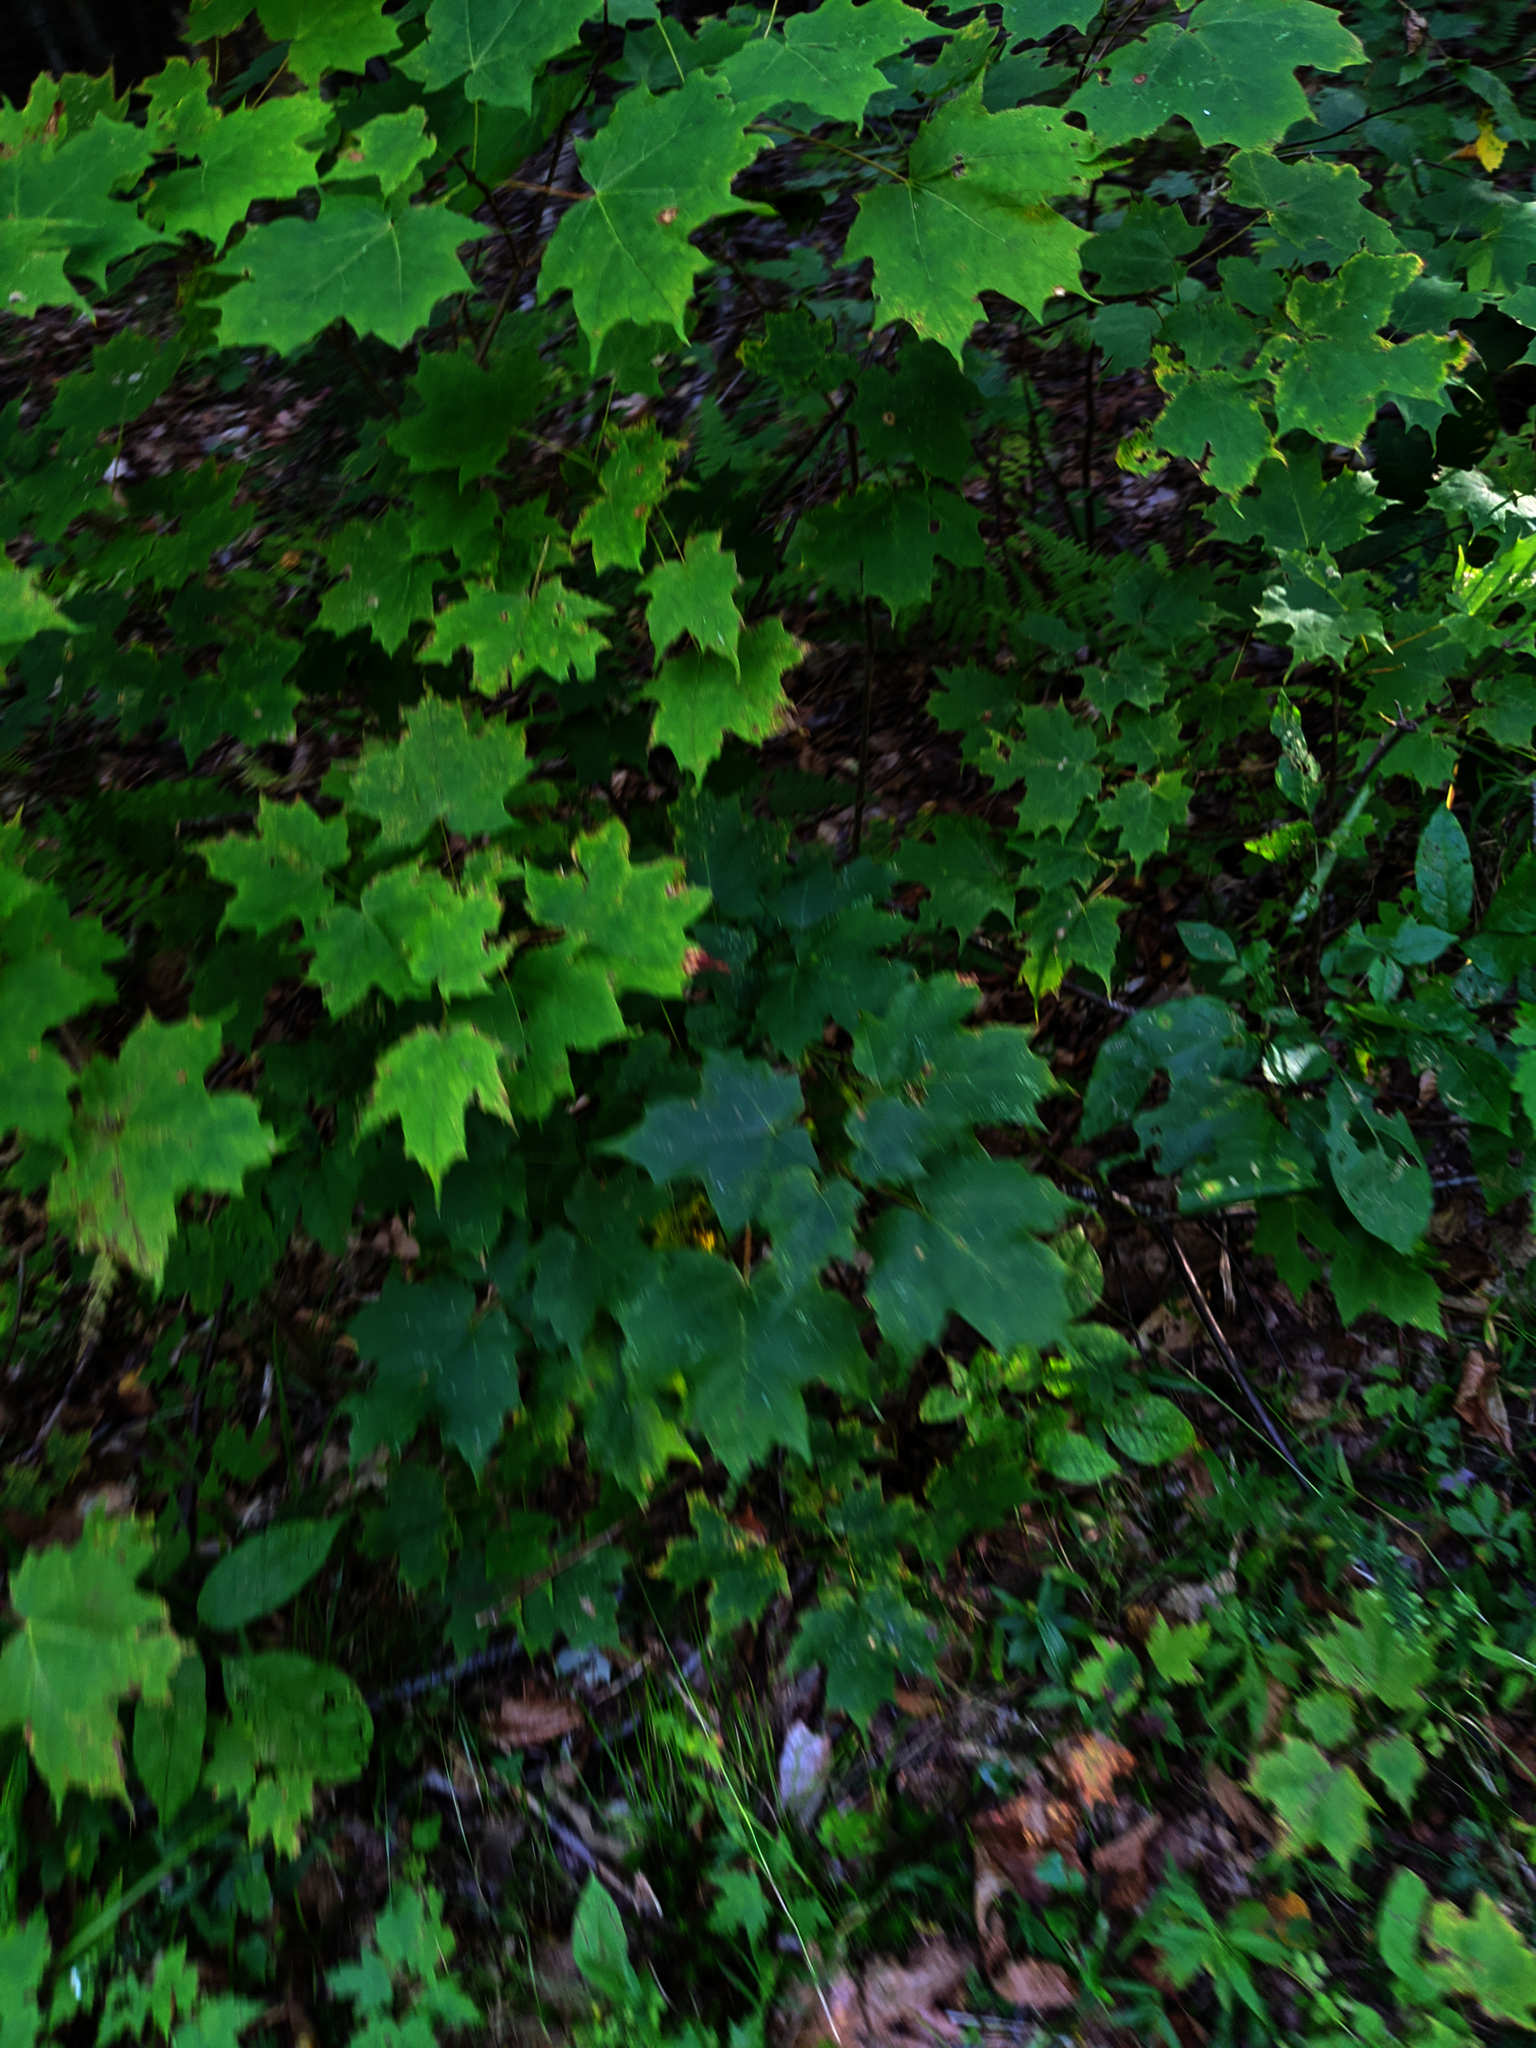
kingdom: Plantae
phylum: Tracheophyta
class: Magnoliopsida
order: Sapindales
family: Sapindaceae
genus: Acer
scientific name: Acer saccharum
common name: Sugar maple
